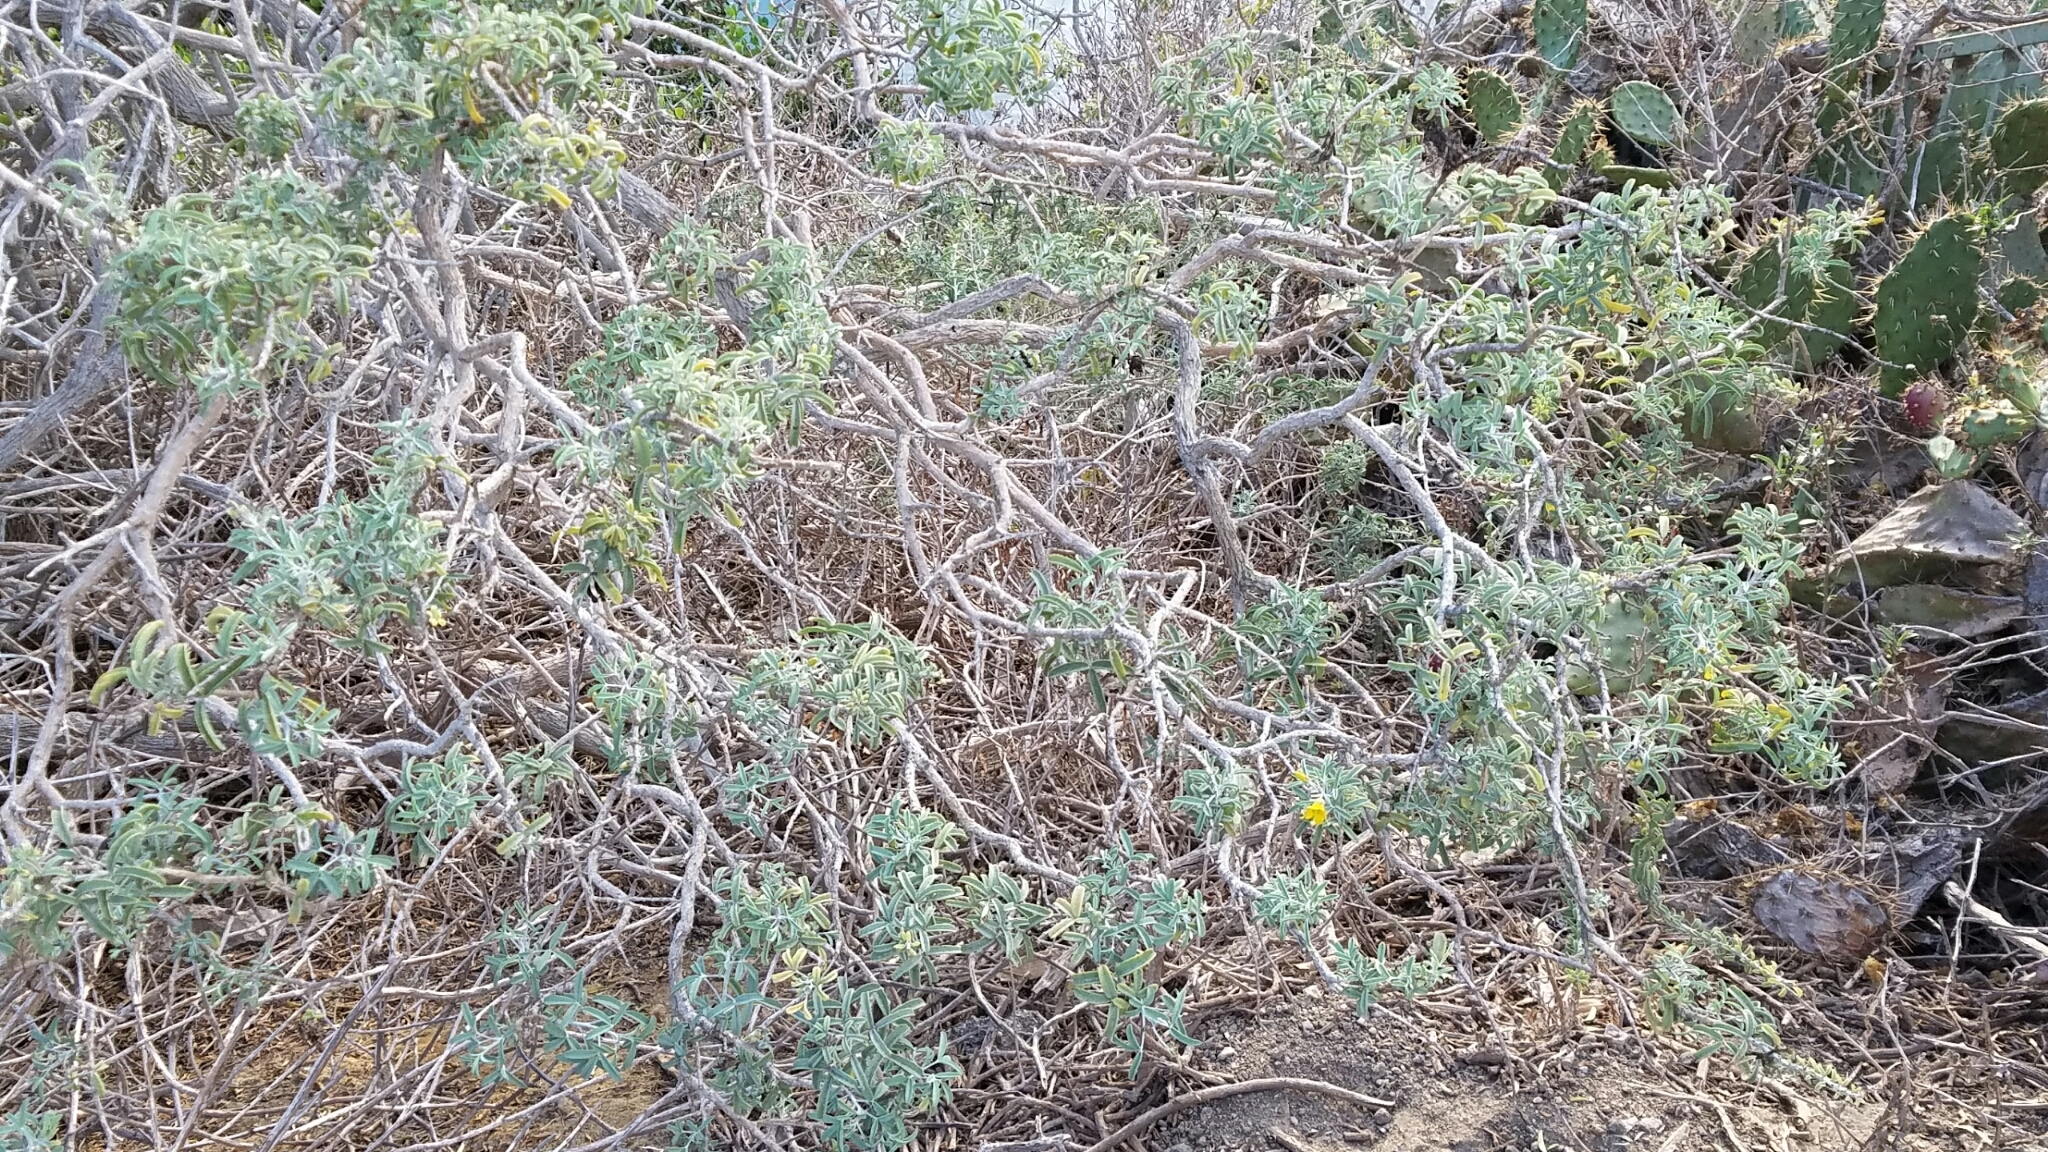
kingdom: Plantae
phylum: Tracheophyta
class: Magnoliopsida
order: Brassicales
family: Cleomaceae
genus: Cleomella
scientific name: Cleomella arborea
